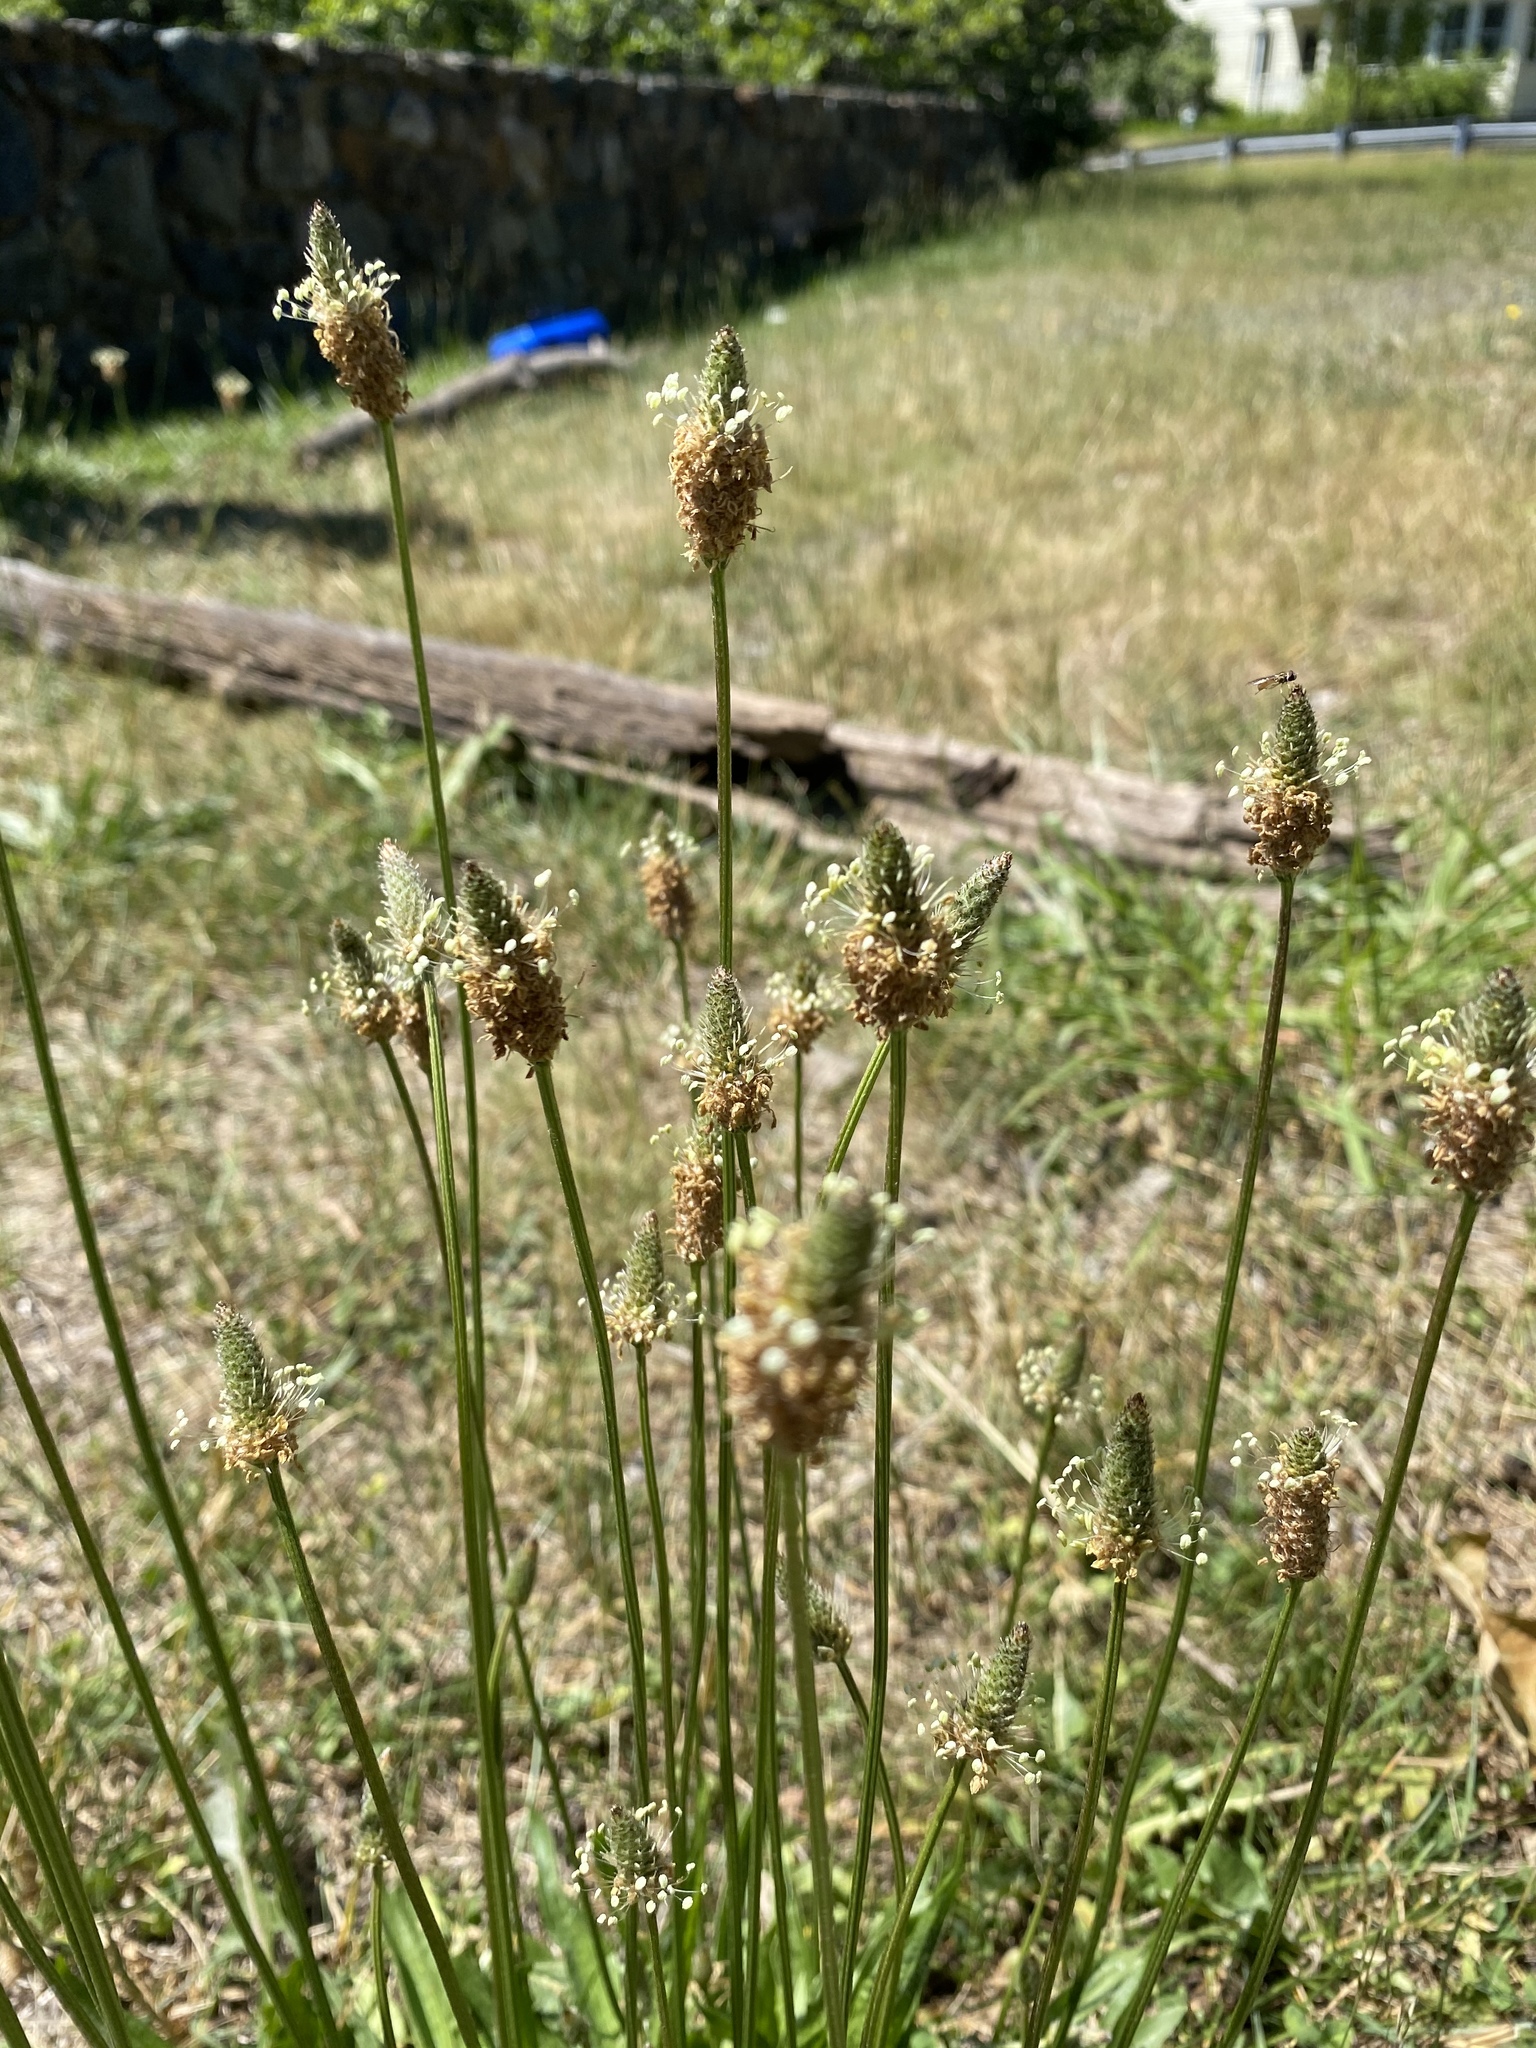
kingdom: Plantae
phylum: Tracheophyta
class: Magnoliopsida
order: Lamiales
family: Plantaginaceae
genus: Plantago
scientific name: Plantago lanceolata
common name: Ribwort plantain
